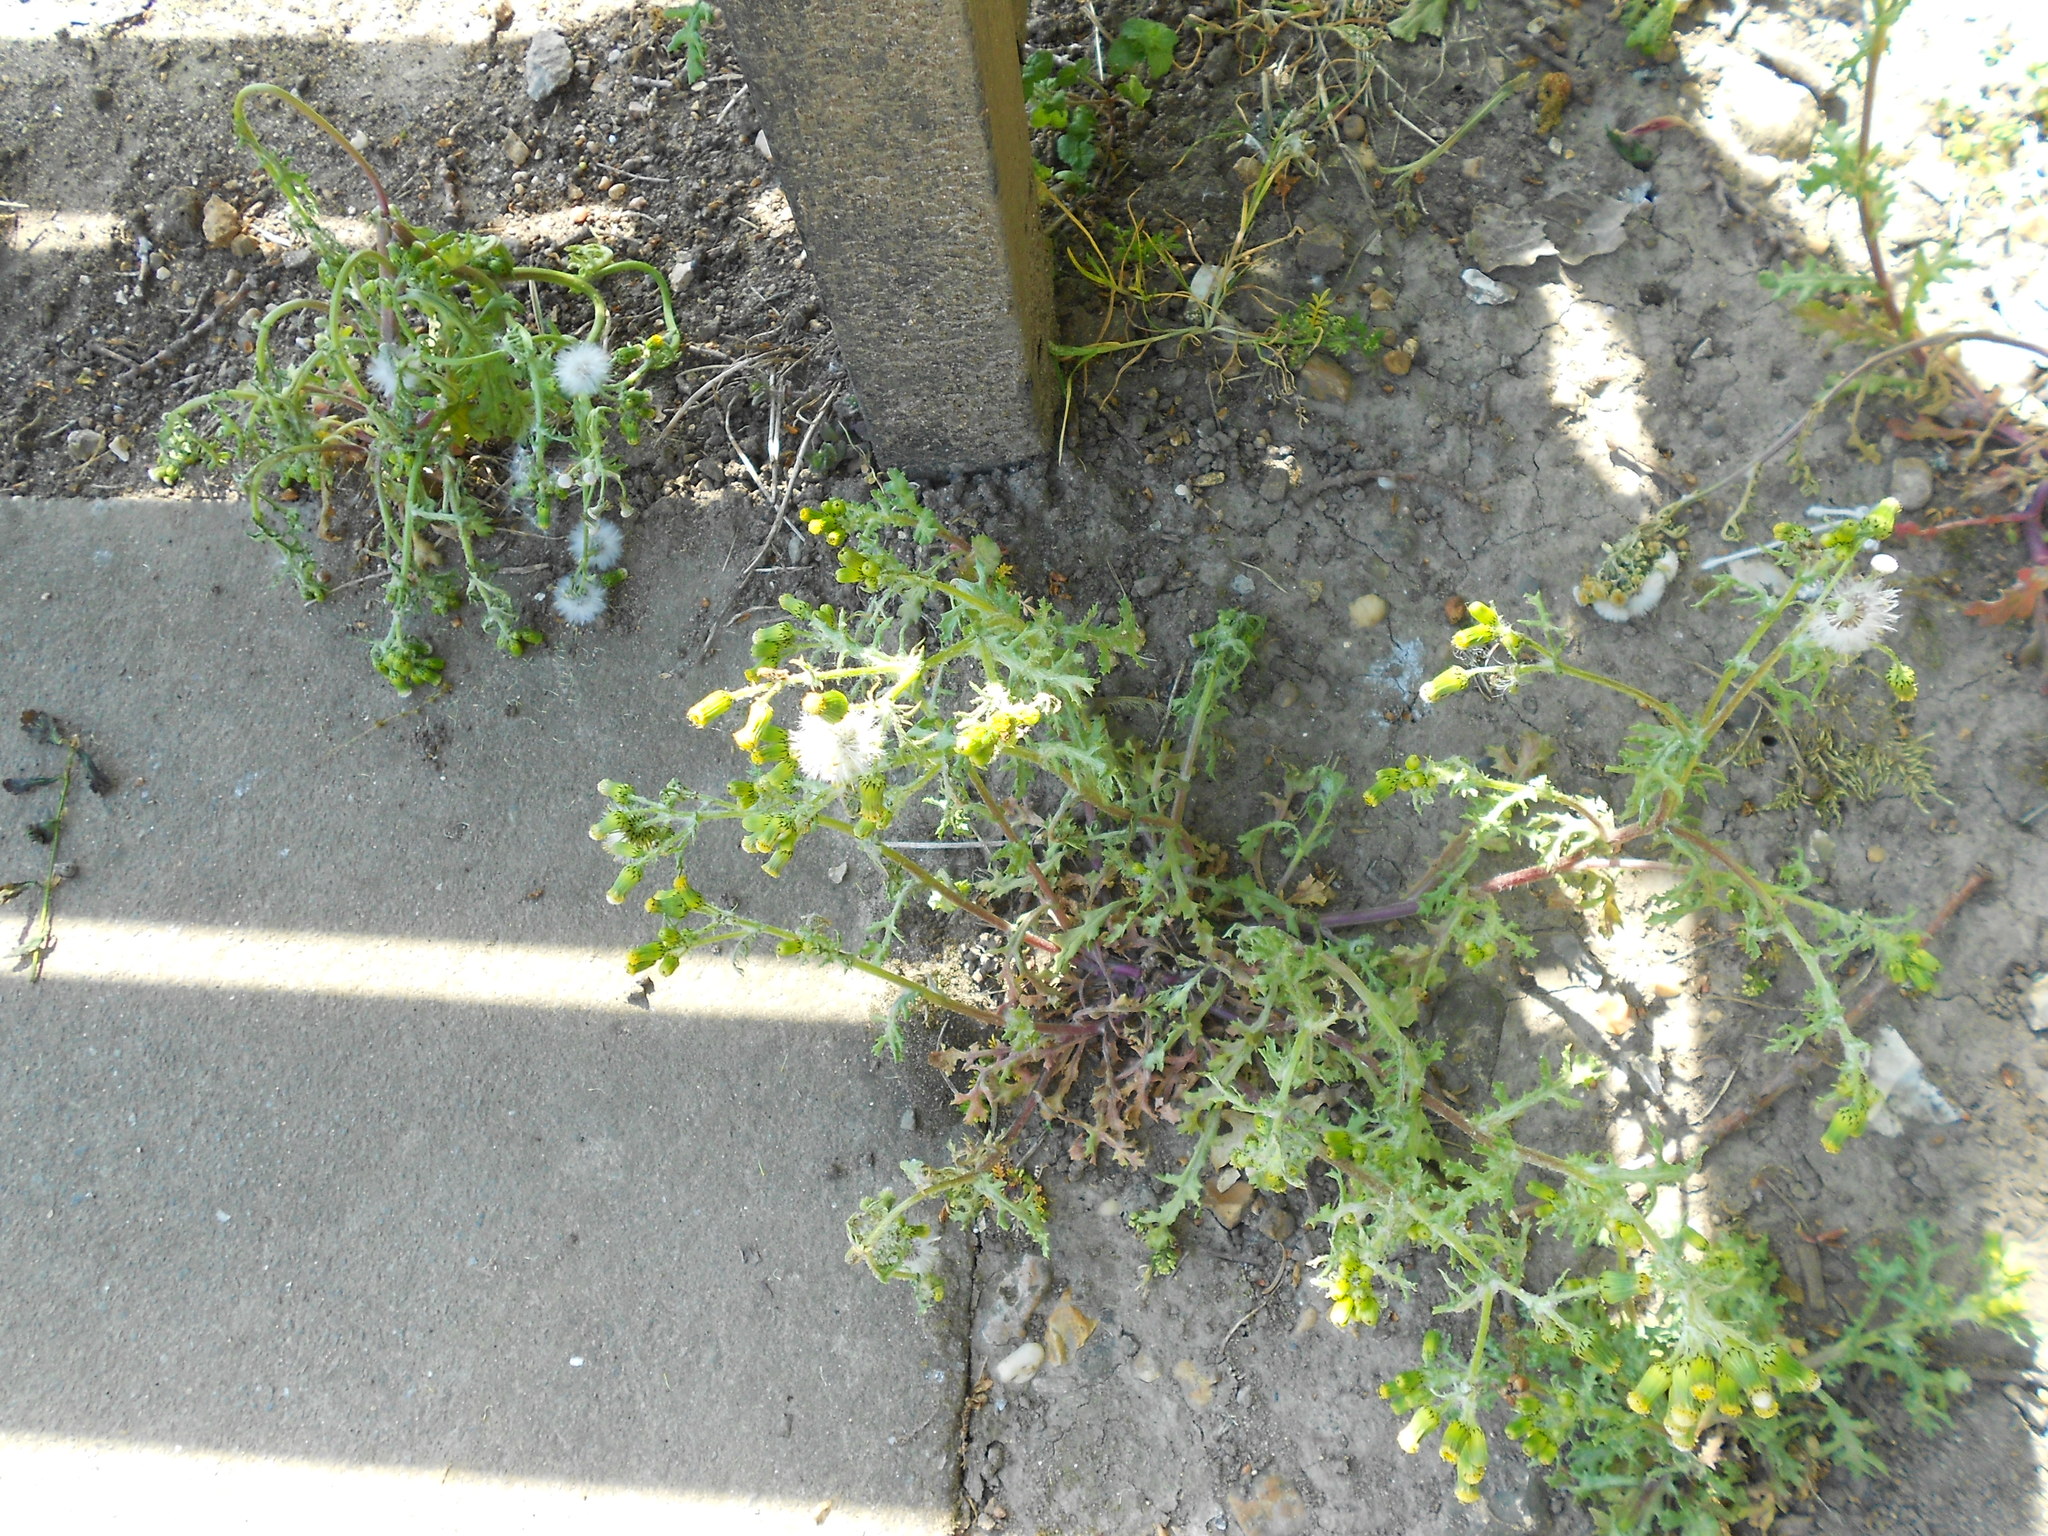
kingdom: Plantae
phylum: Tracheophyta
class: Magnoliopsida
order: Asterales
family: Asteraceae
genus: Senecio
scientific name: Senecio vulgaris
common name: Old-man-in-the-spring
